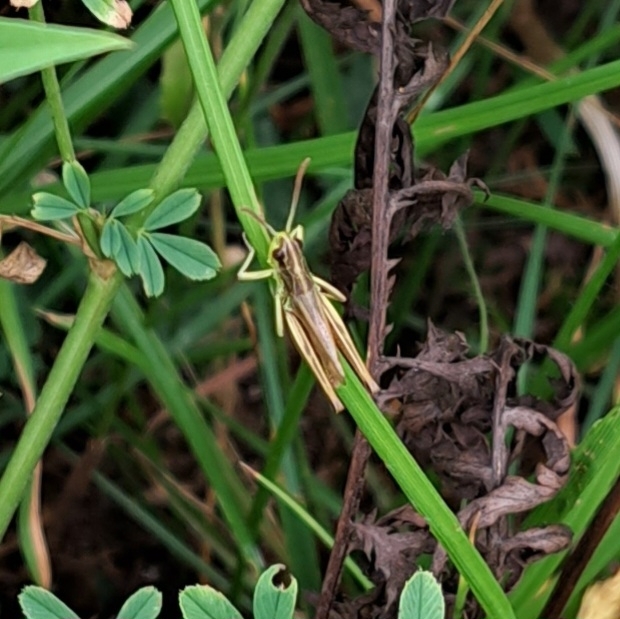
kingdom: Animalia
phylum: Arthropoda
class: Insecta
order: Orthoptera
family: Acrididae
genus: Pseudochorthippus
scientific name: Pseudochorthippus parallelus
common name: Meadow grasshopper
